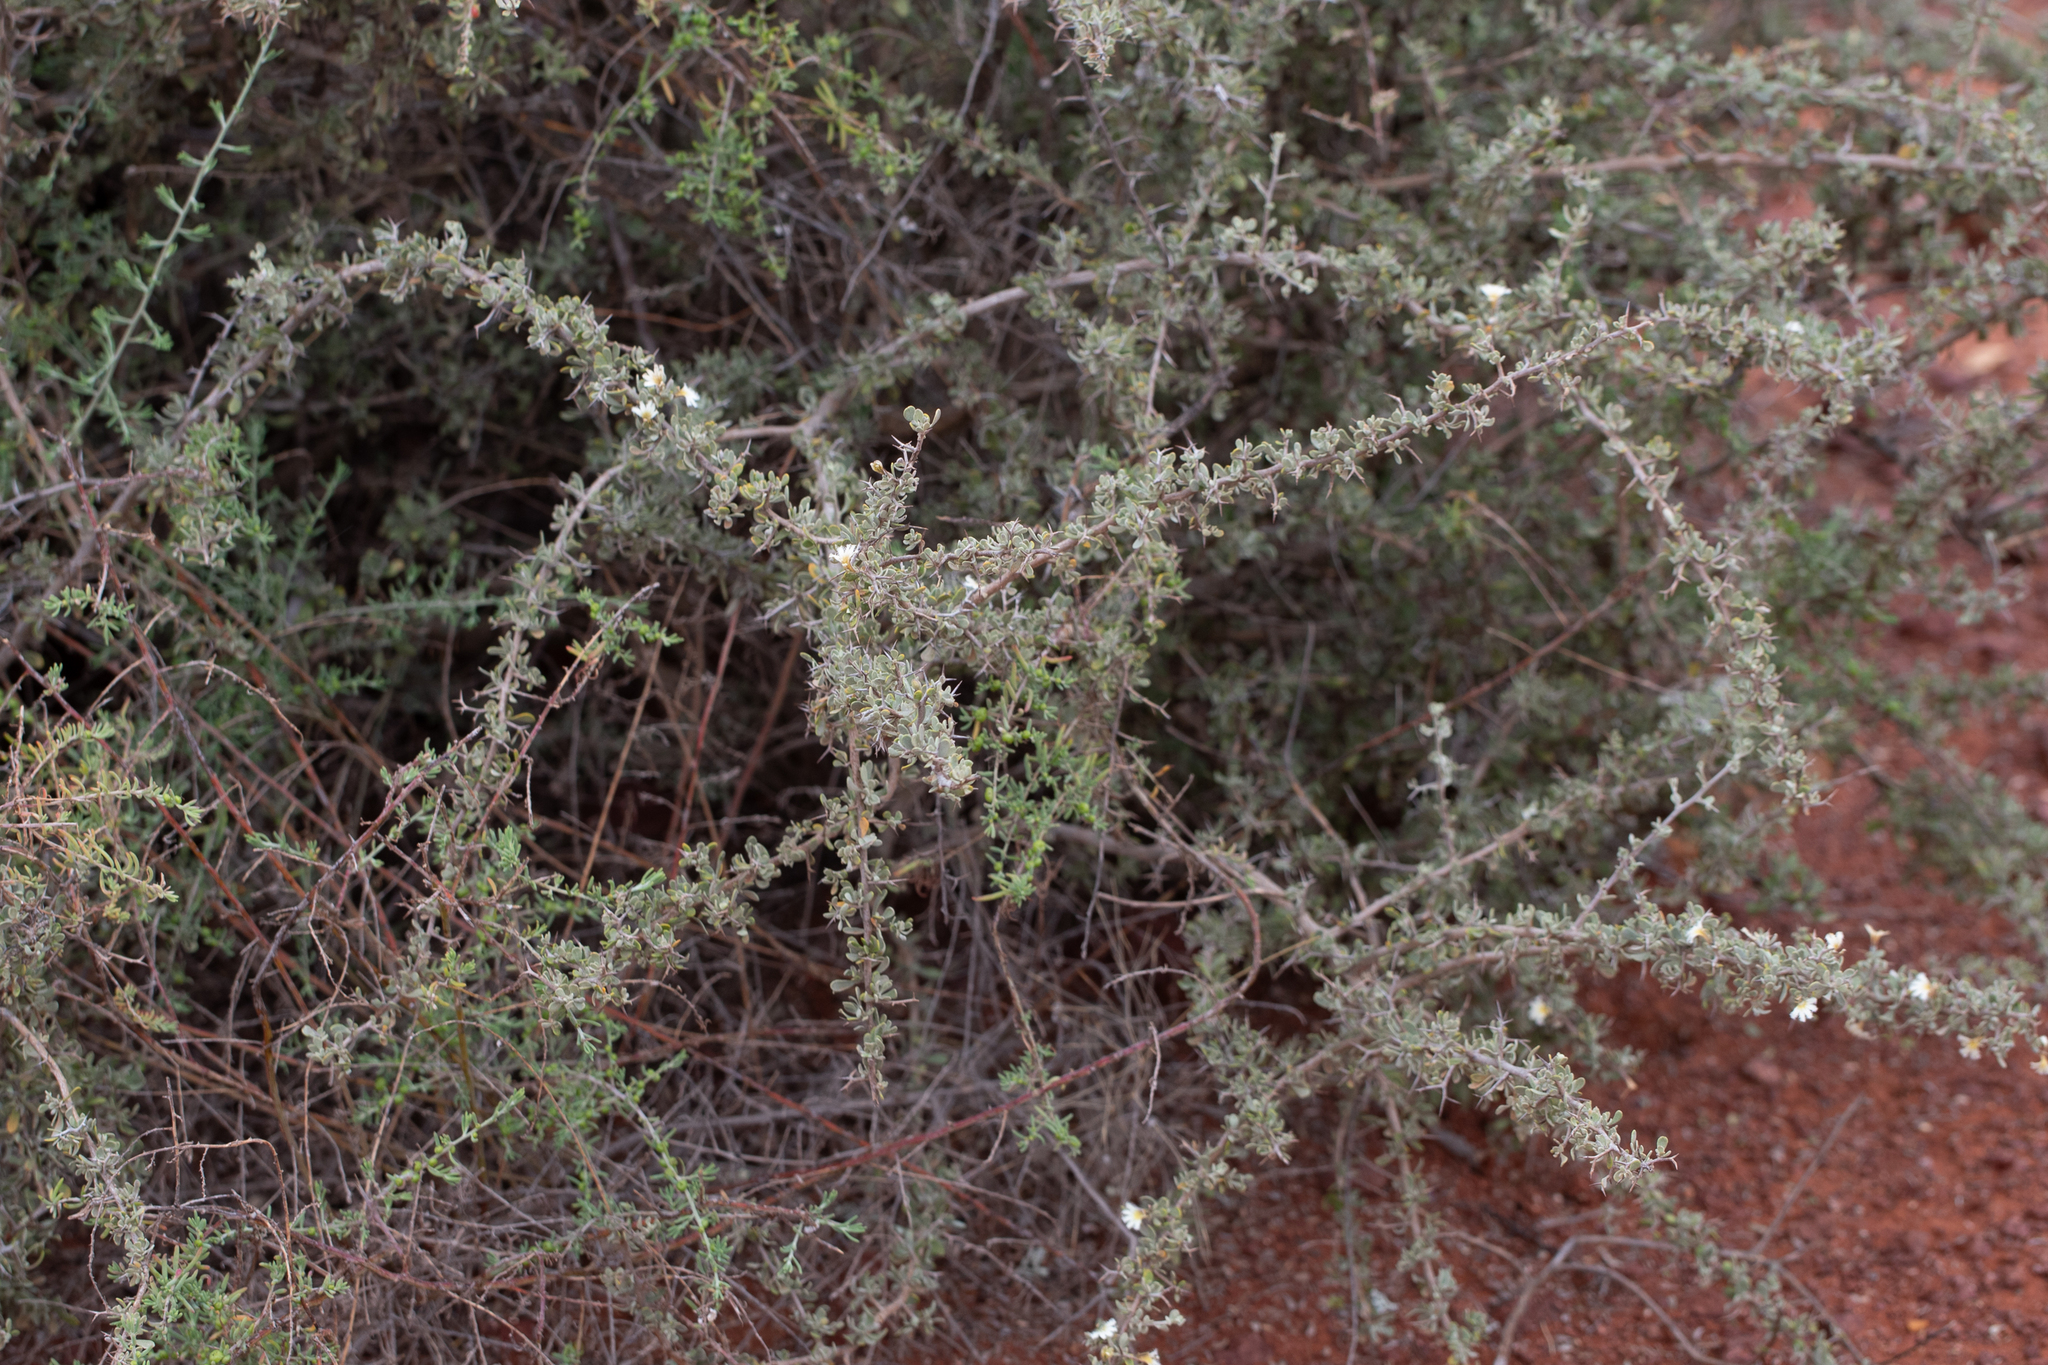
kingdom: Plantae
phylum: Tracheophyta
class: Magnoliopsida
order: Asterales
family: Goodeniaceae
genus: Scaevola
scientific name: Scaevola spinescens
